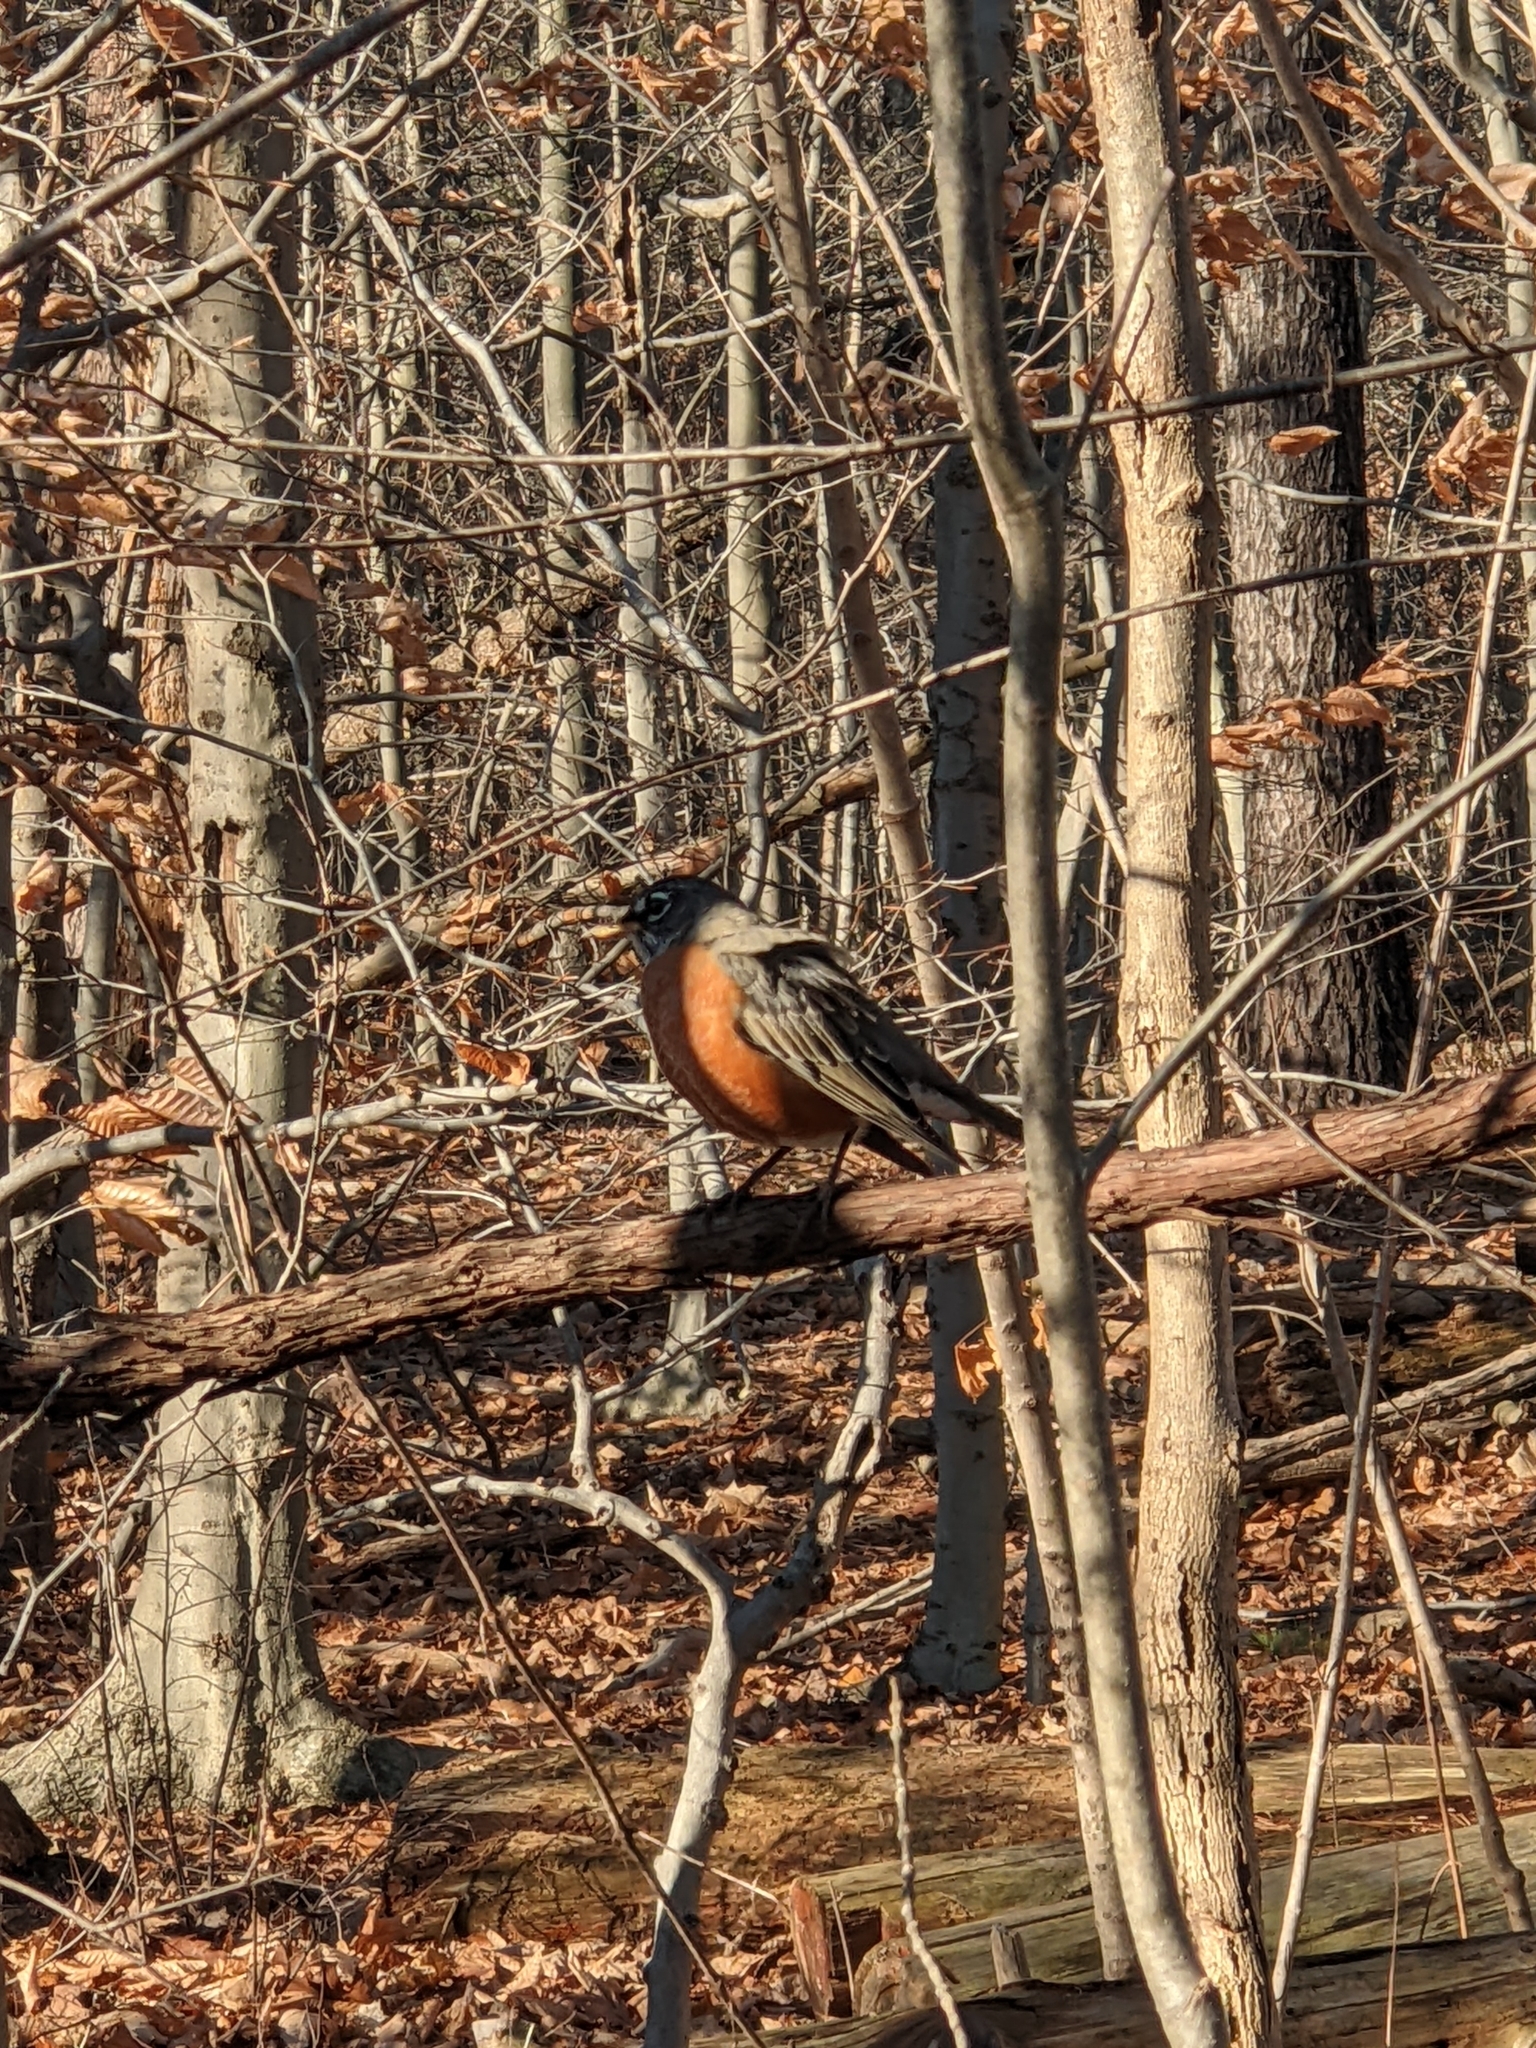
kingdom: Animalia
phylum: Chordata
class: Aves
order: Passeriformes
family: Turdidae
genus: Turdus
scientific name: Turdus migratorius
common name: American robin
